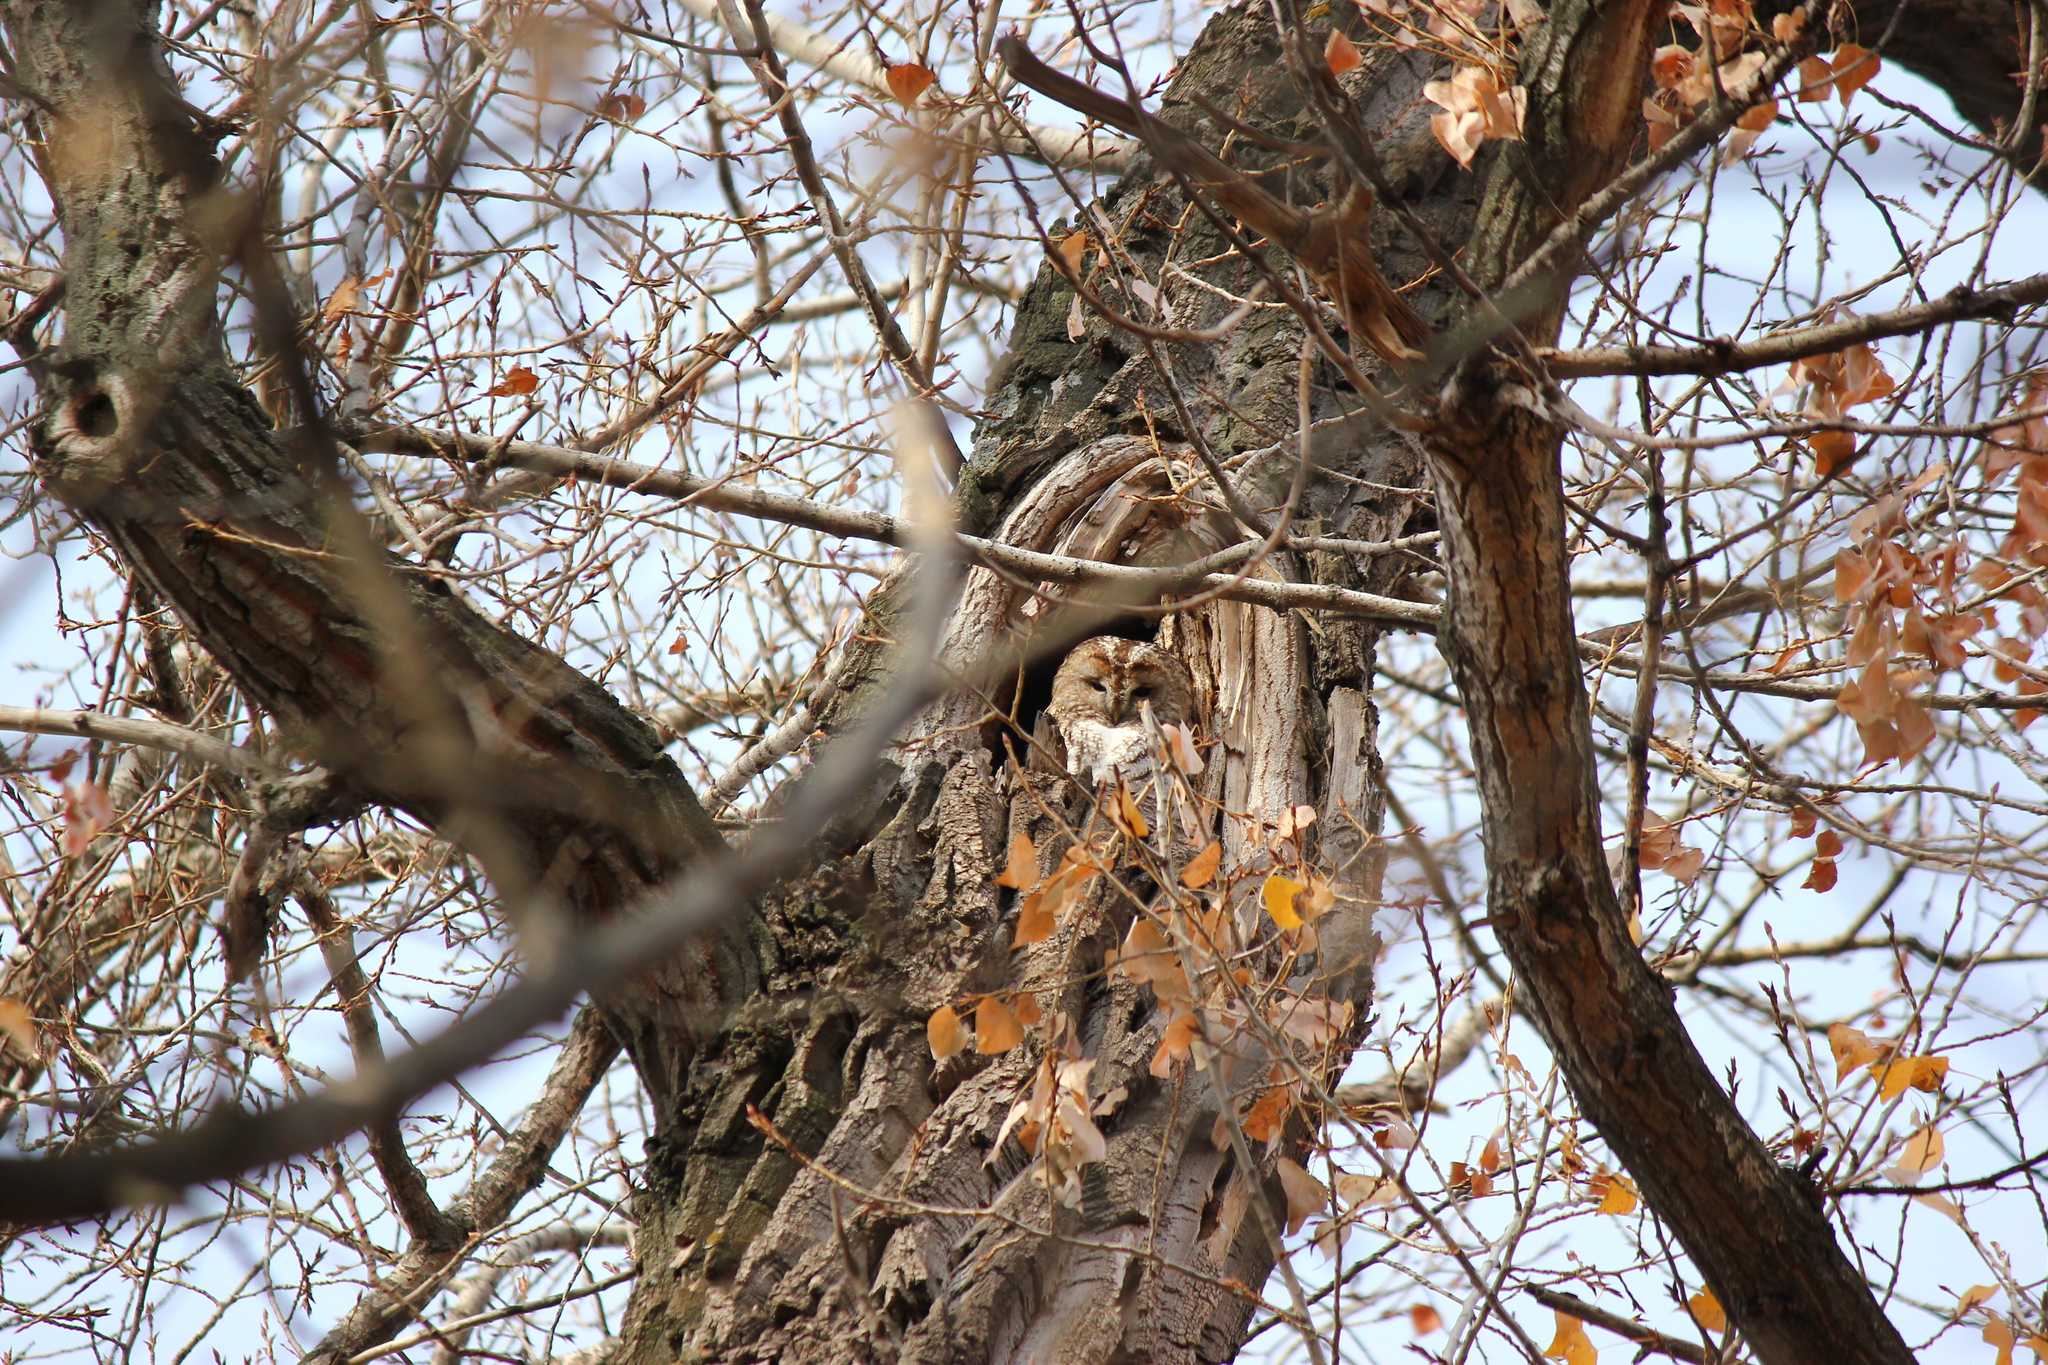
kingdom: Animalia
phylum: Chordata
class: Aves
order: Strigiformes
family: Strigidae
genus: Strix
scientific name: Strix aluco
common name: Tawny owl
